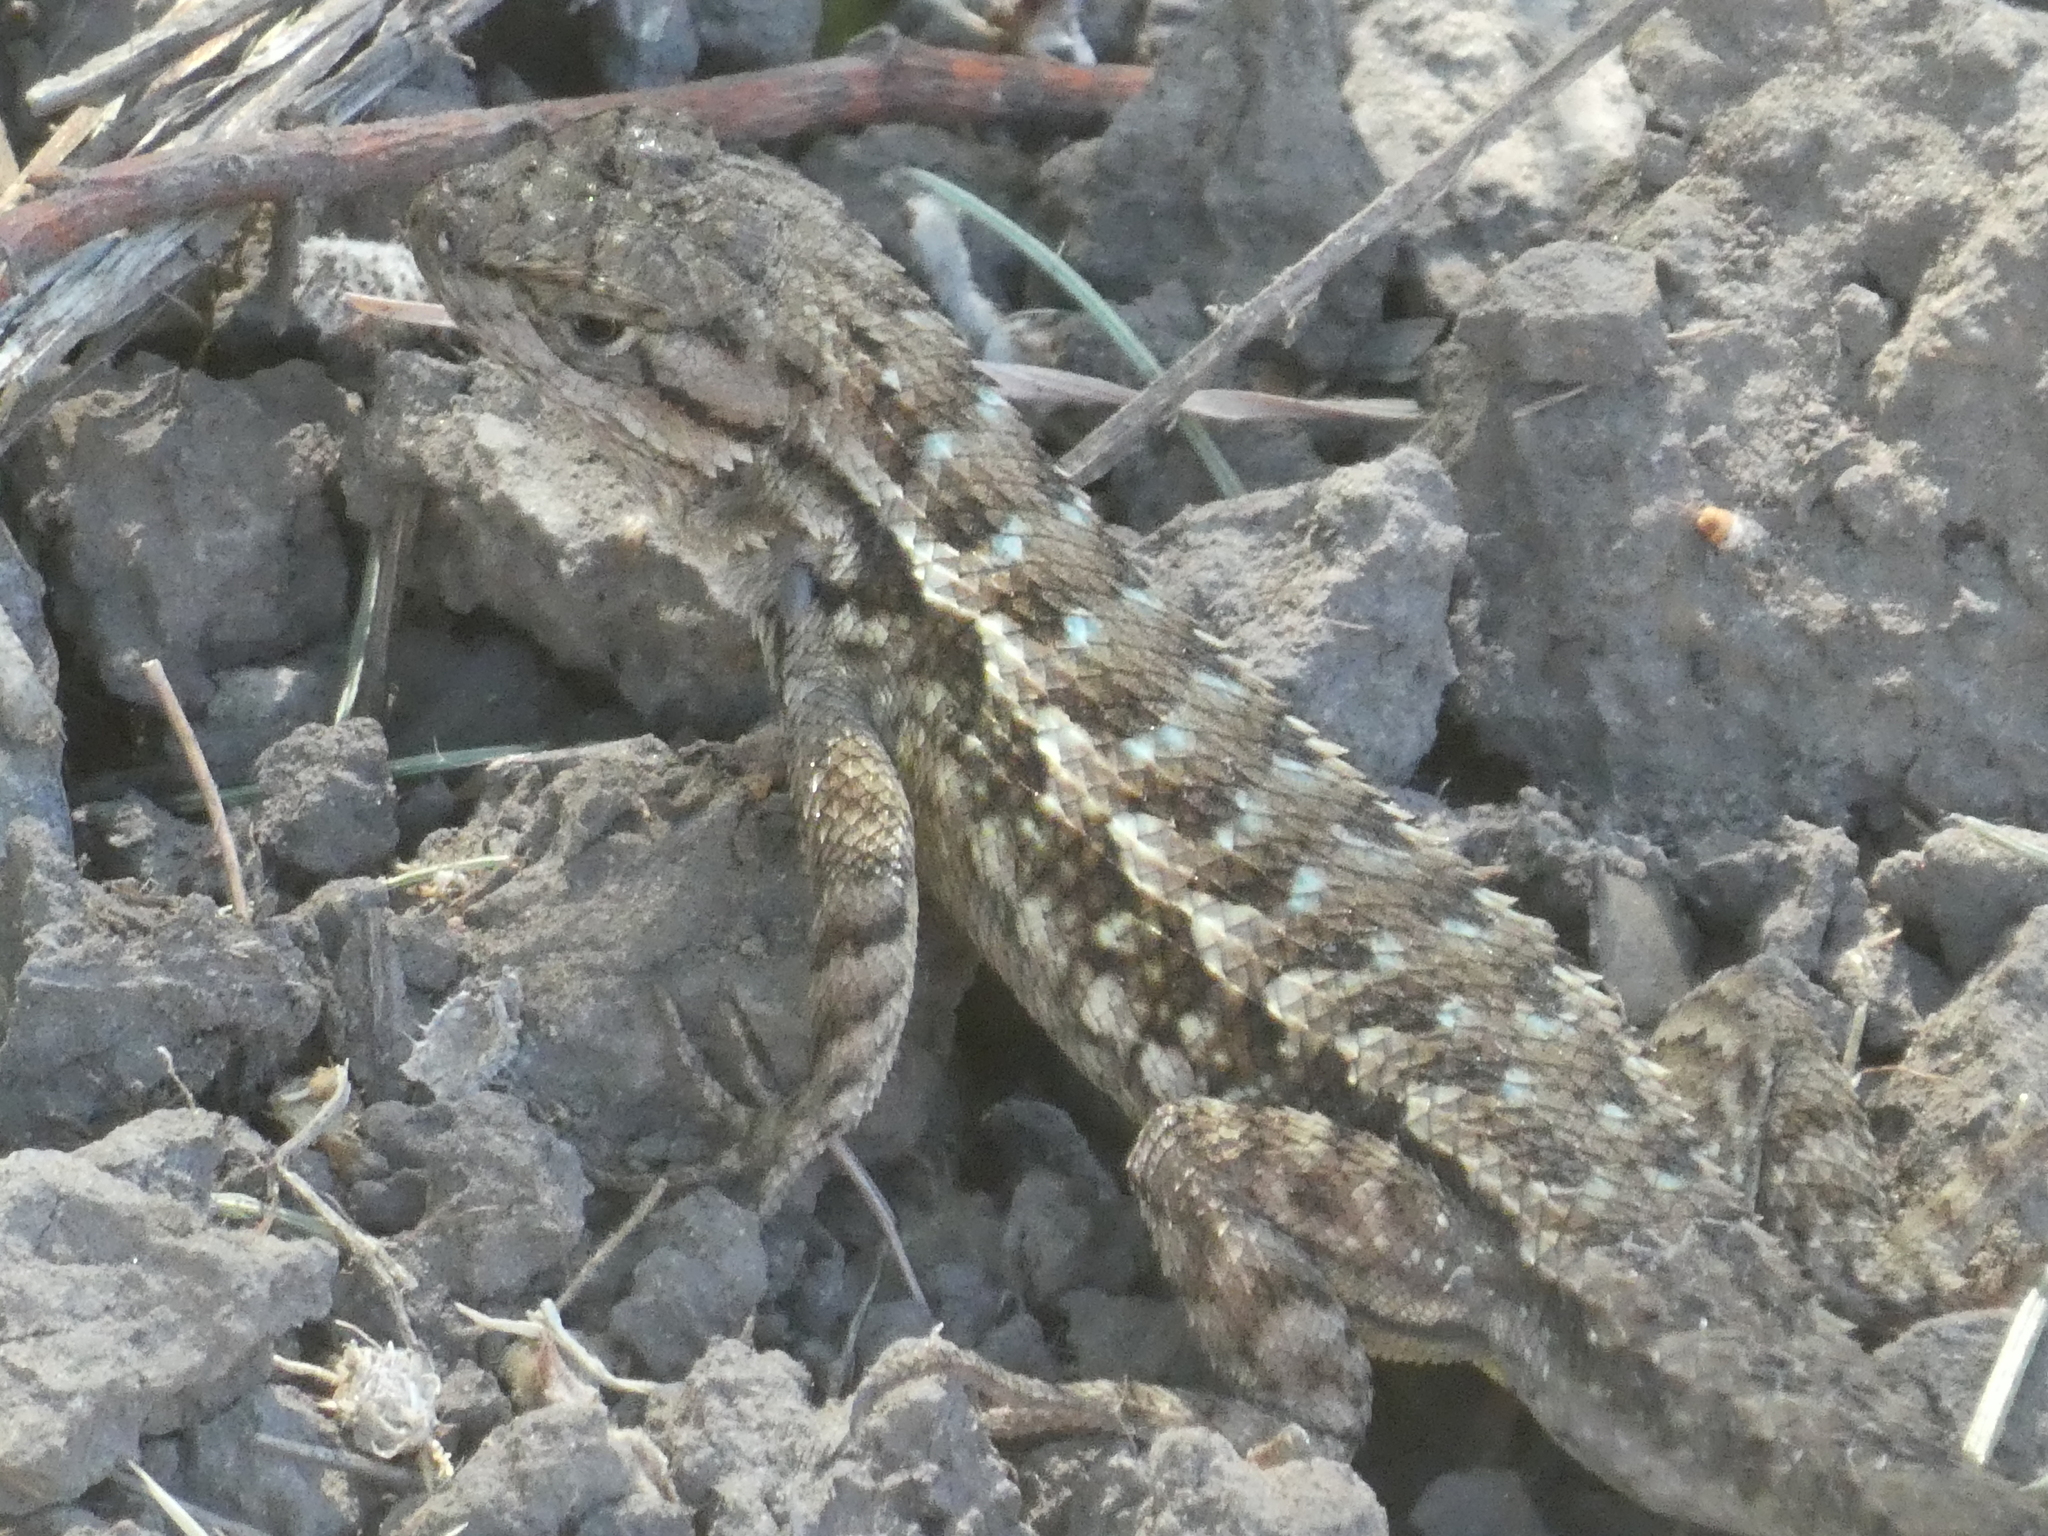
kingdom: Animalia
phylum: Chordata
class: Squamata
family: Phrynosomatidae
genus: Sceloporus
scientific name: Sceloporus occidentalis
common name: Western fence lizard
